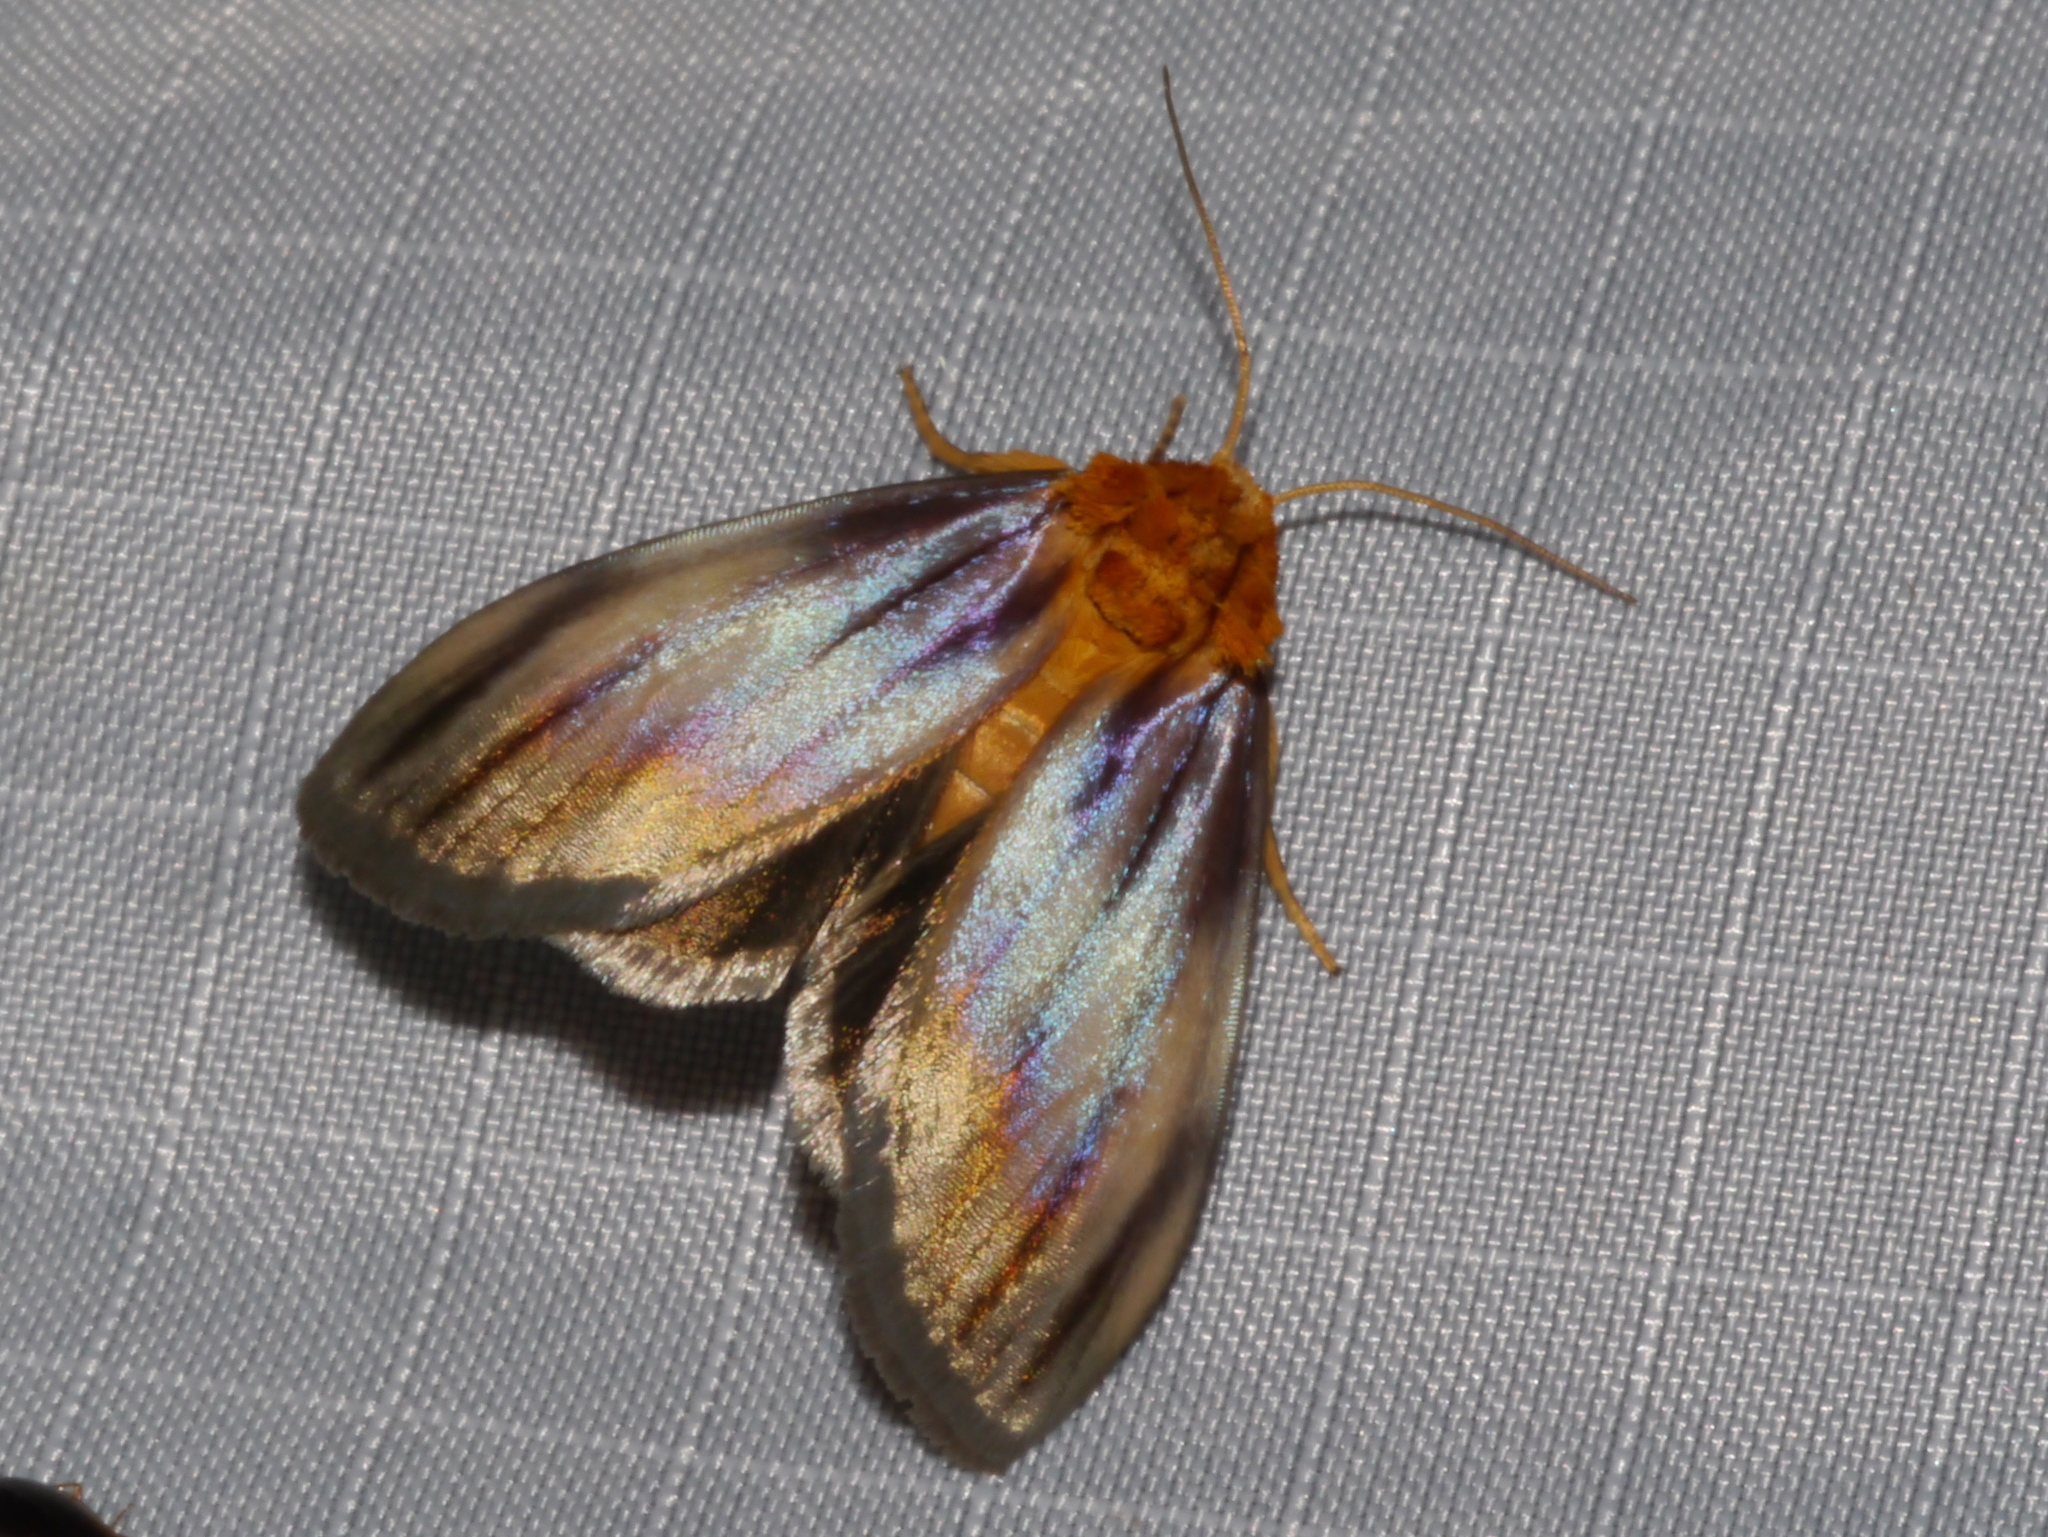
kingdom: Animalia
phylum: Arthropoda
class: Insecta
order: Lepidoptera
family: Noctuidae
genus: Antaplaga
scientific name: Antaplaga plesioglauca
